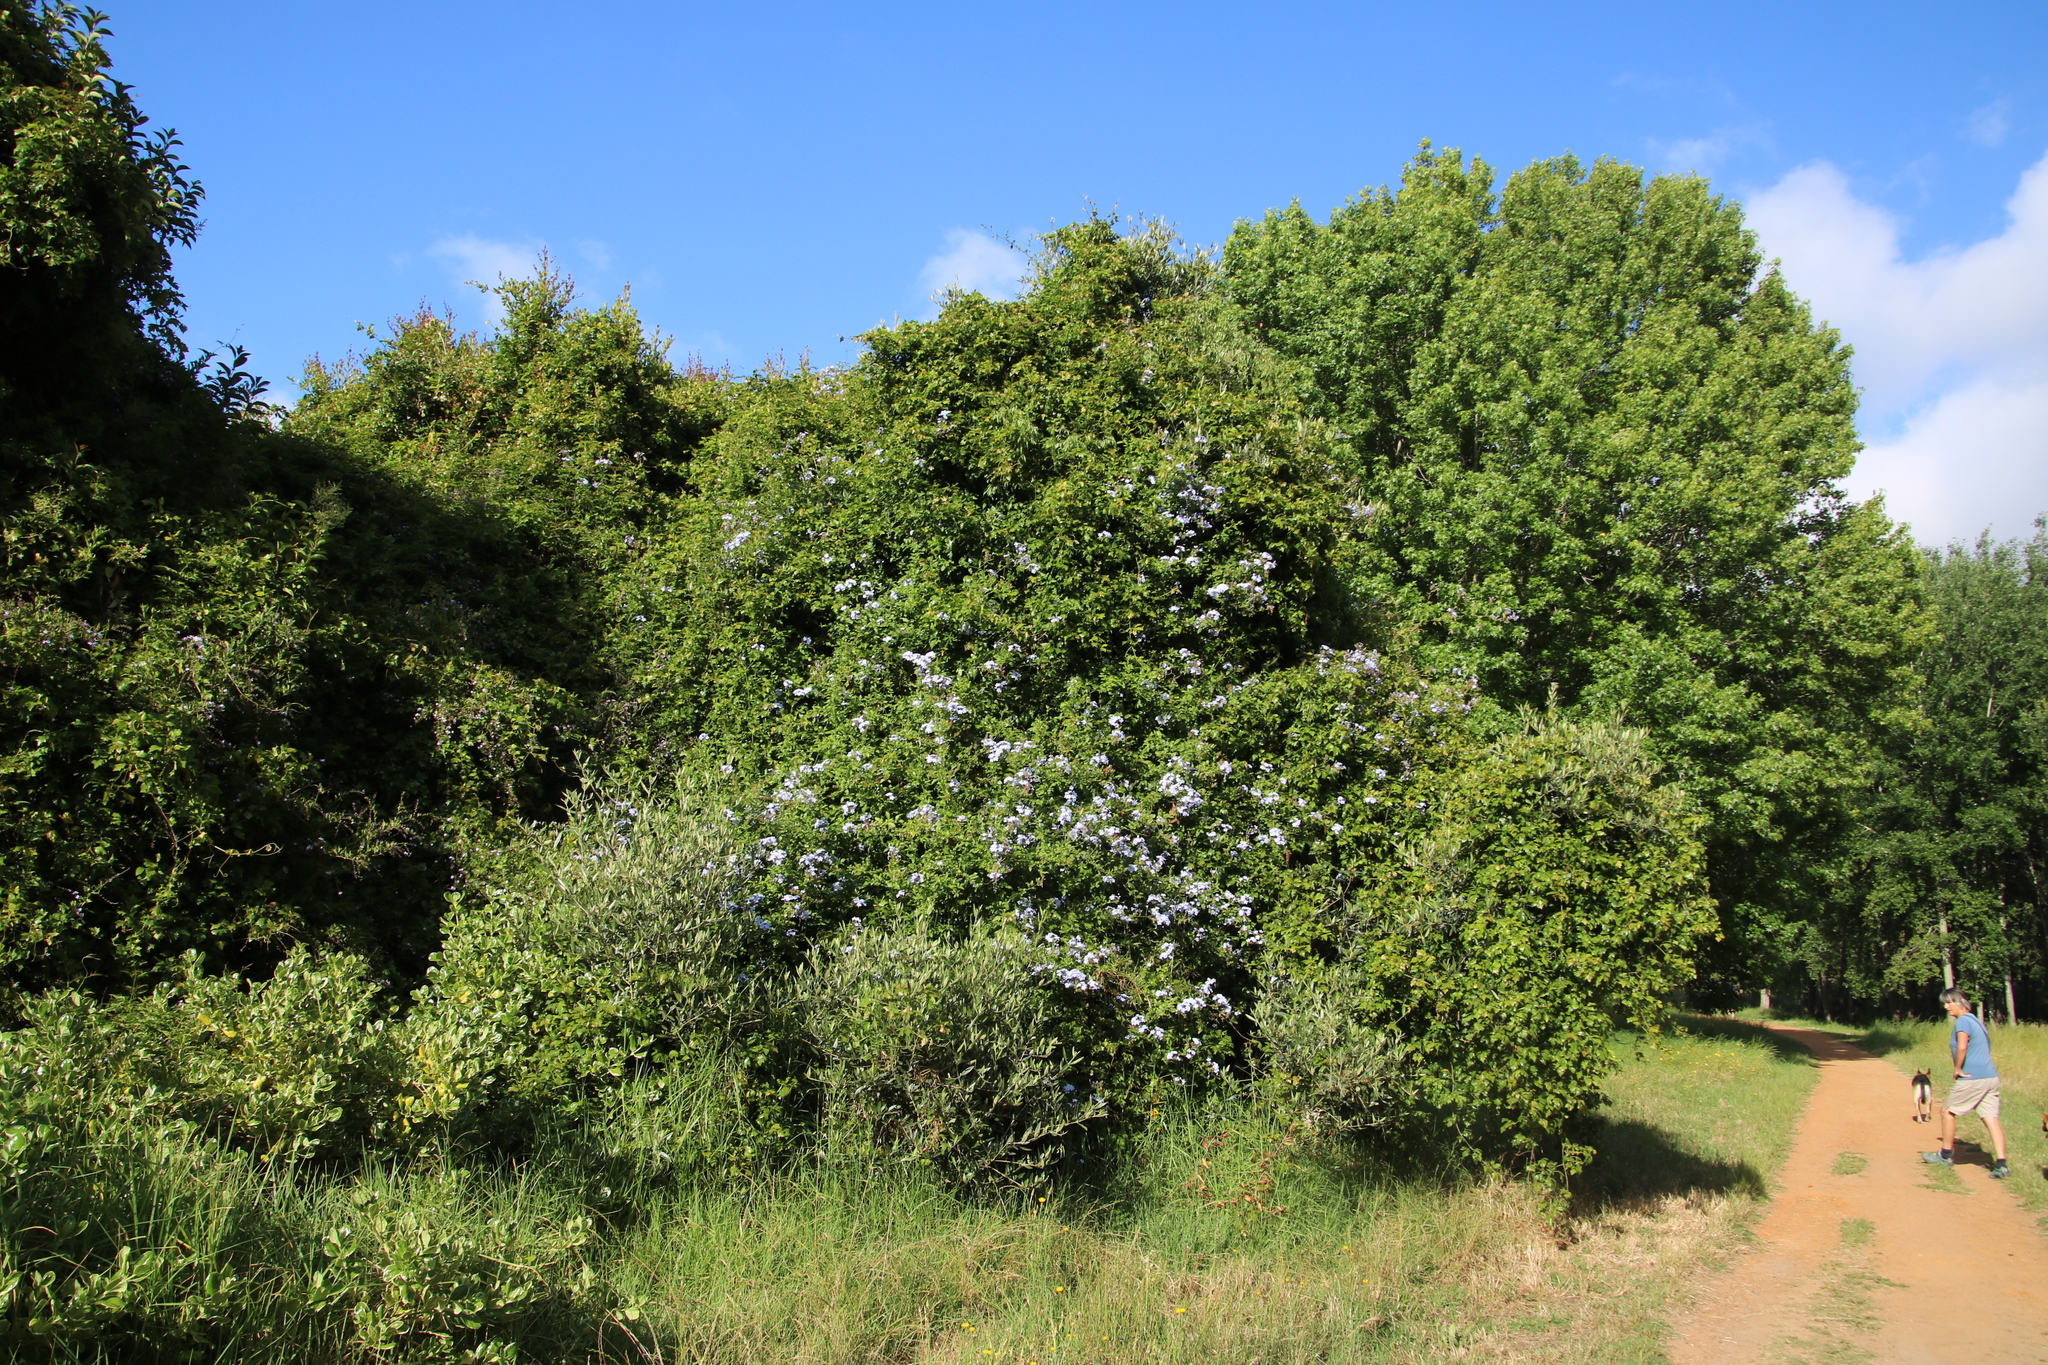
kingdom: Plantae
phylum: Tracheophyta
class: Magnoliopsida
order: Caryophyllales
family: Plumbaginaceae
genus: Plumbago
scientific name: Plumbago auriculata
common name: Cape leadwort
